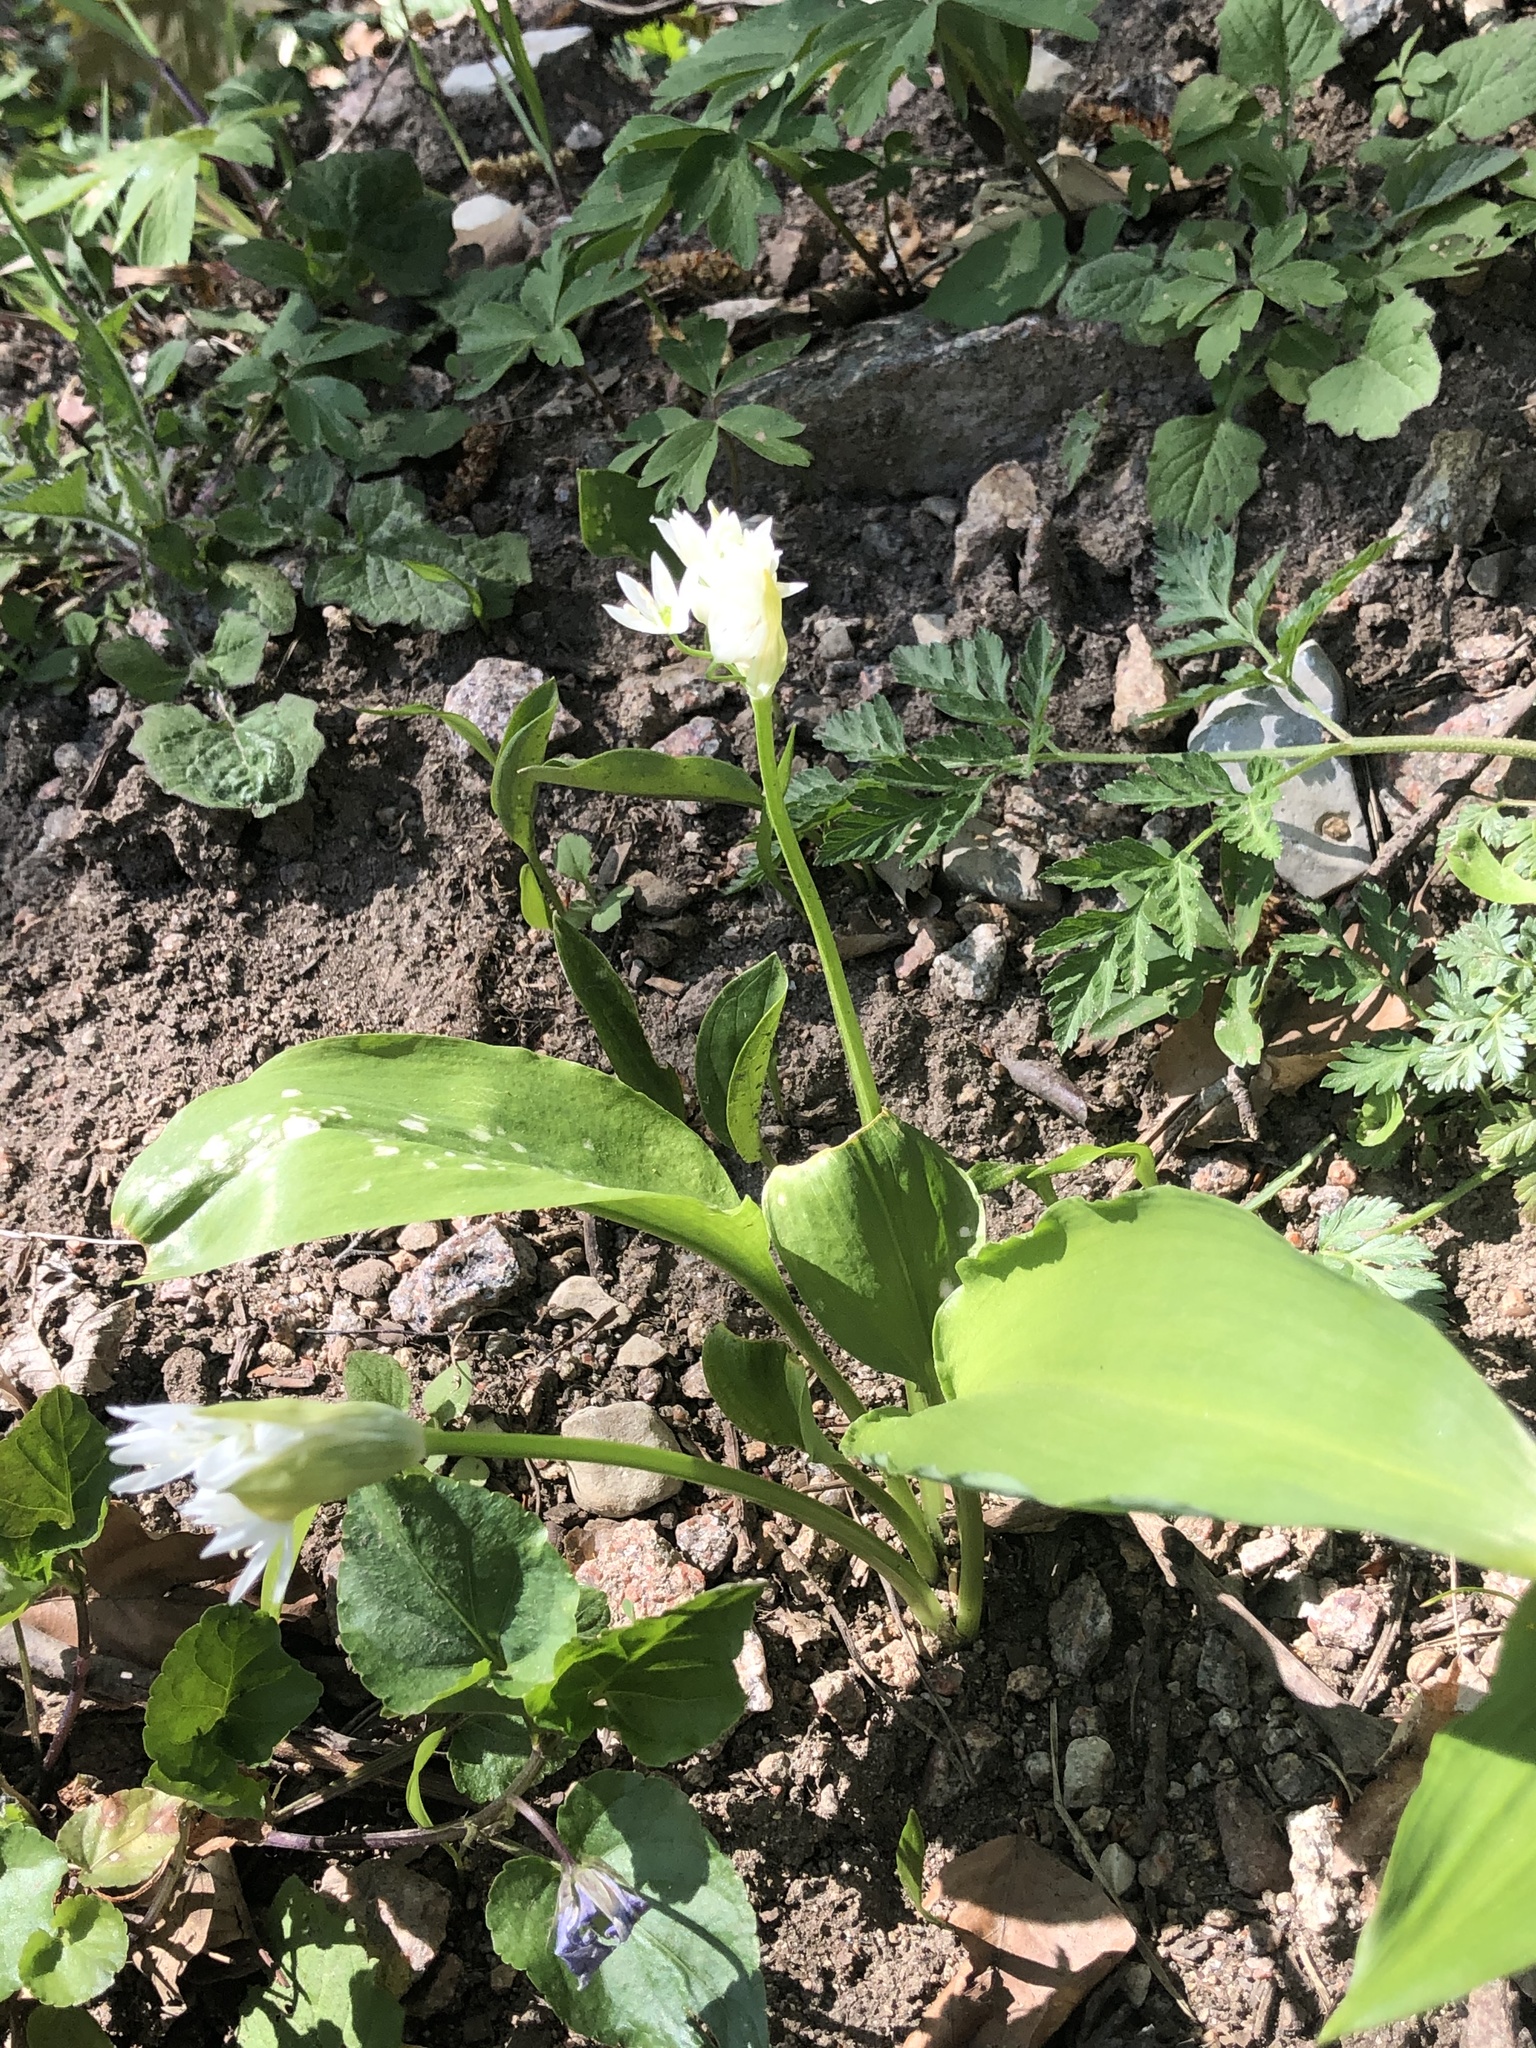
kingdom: Plantae
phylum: Tracheophyta
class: Liliopsida
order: Asparagales
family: Amaryllidaceae
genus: Allium
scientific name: Allium ursinum
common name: Ramsons
